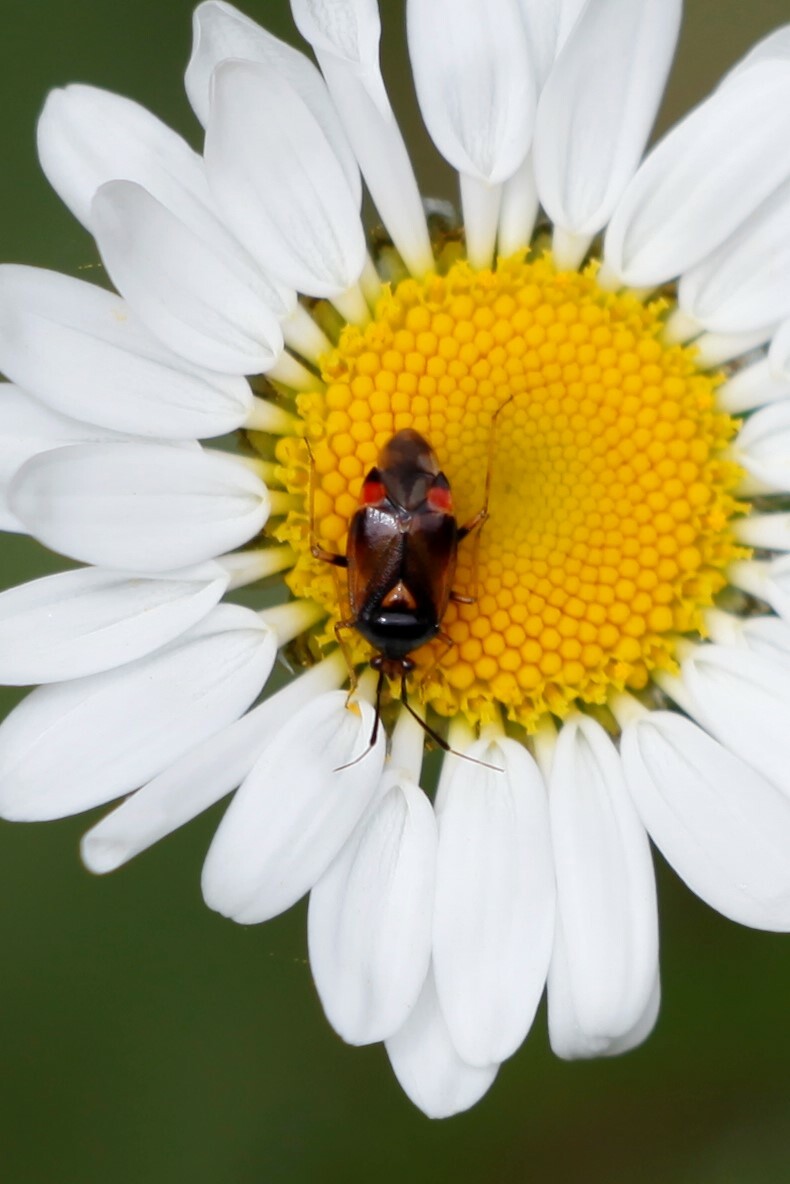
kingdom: Animalia
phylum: Arthropoda
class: Insecta
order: Hemiptera
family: Miridae
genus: Deraeocoris
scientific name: Deraeocoris ruber
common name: Plant bug
